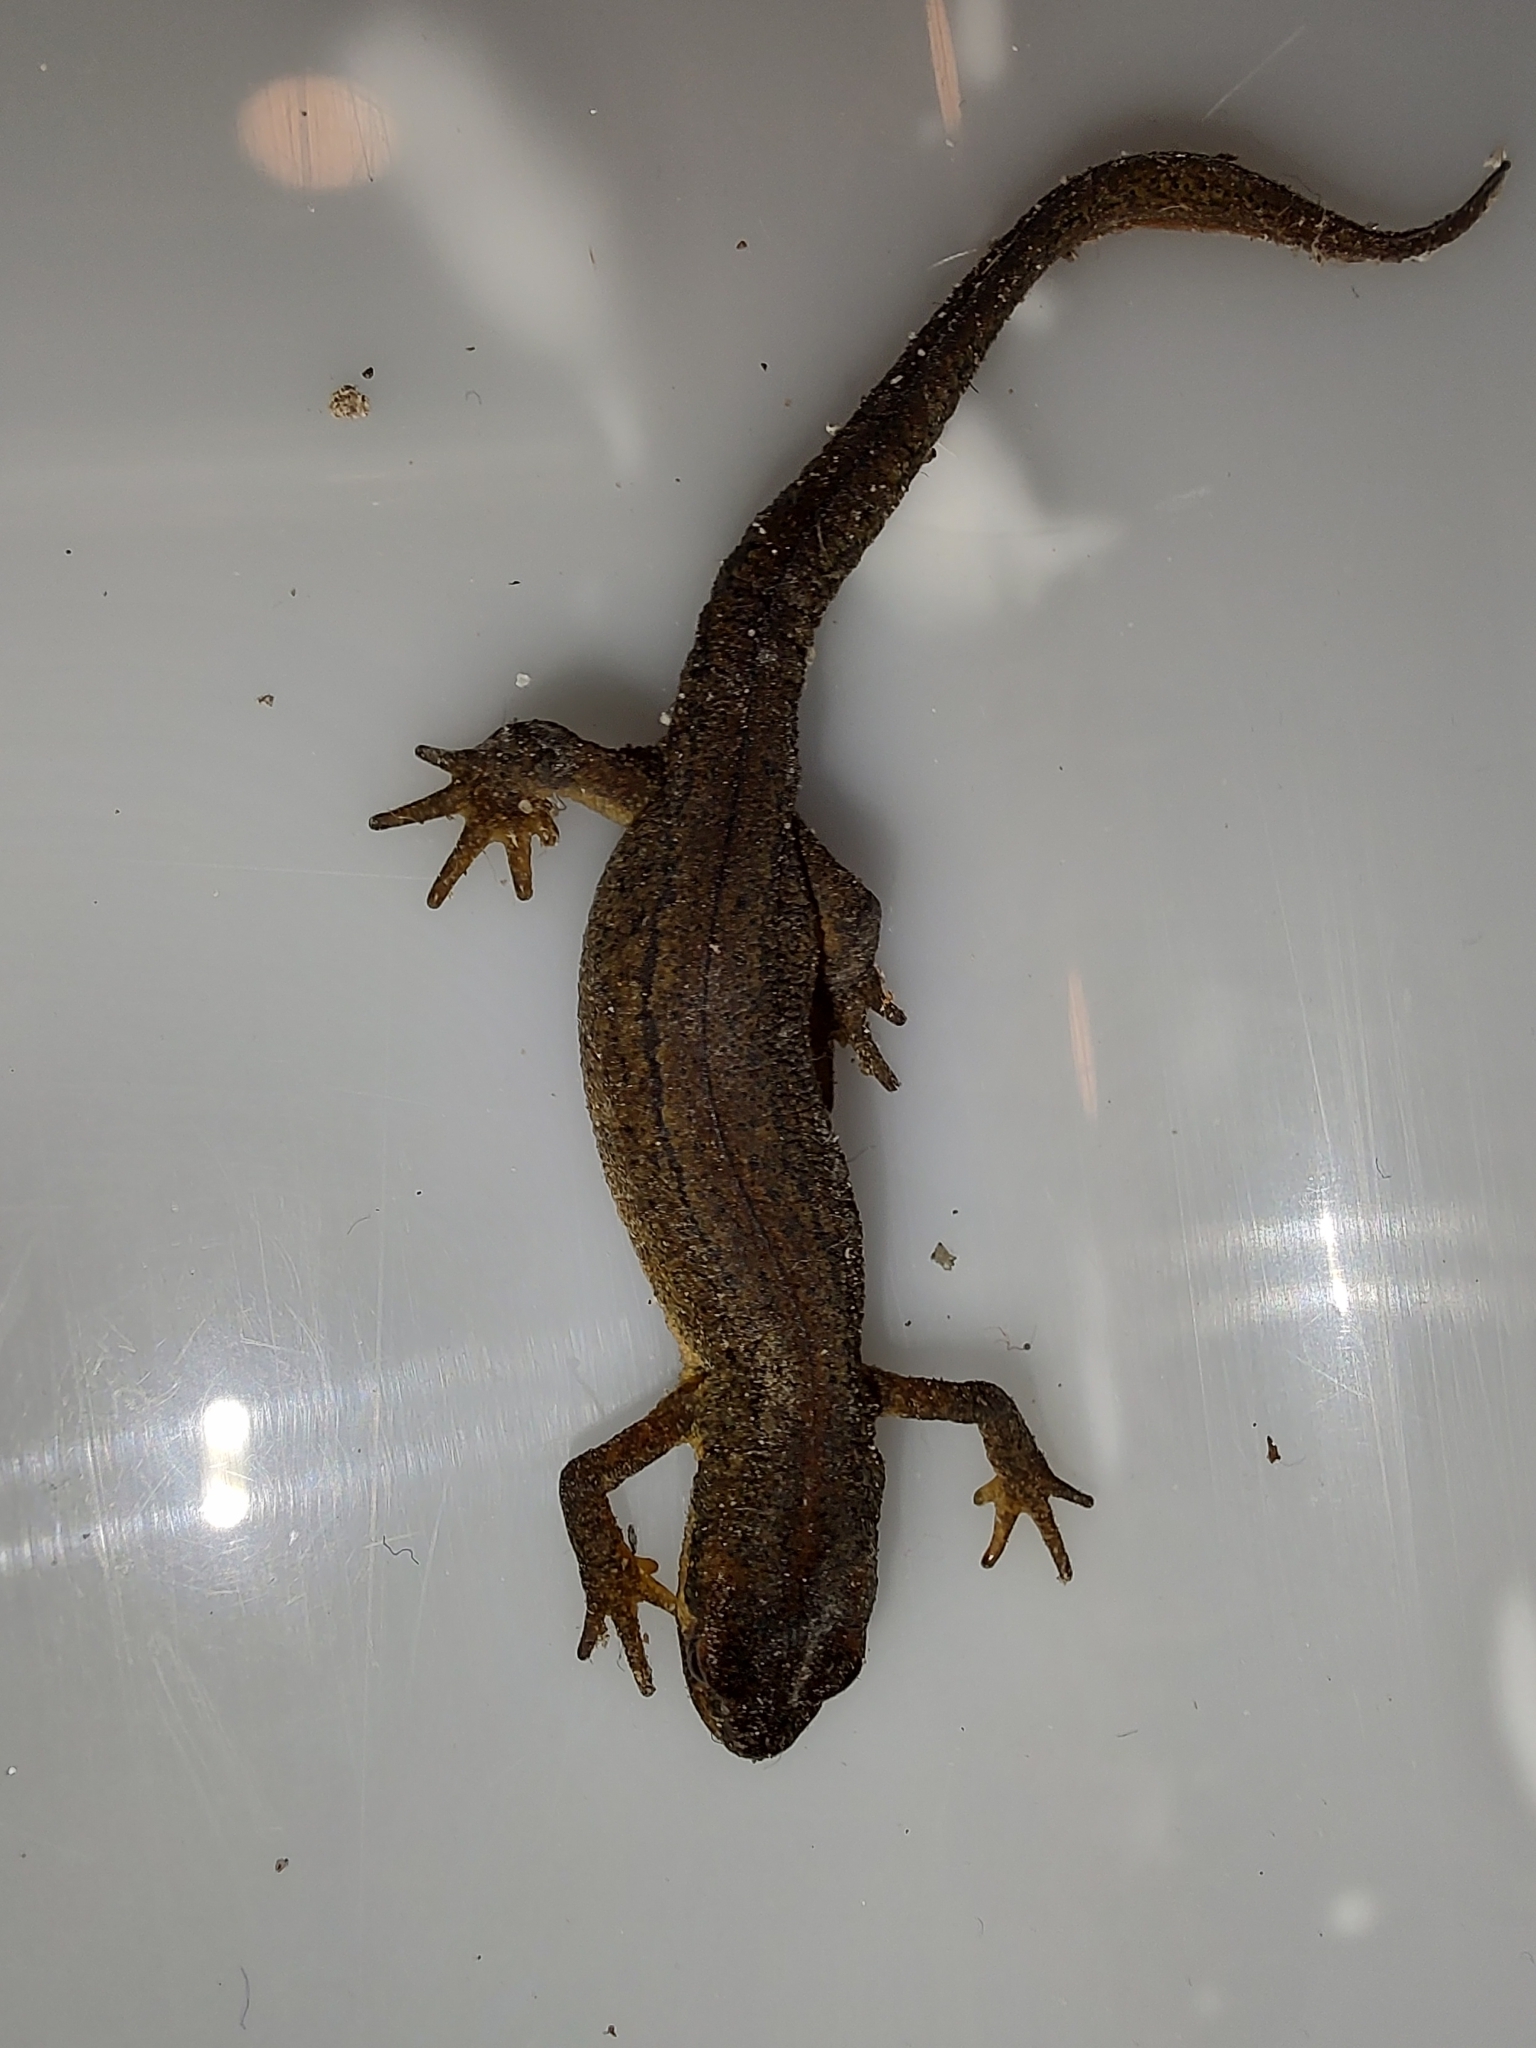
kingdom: Animalia
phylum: Chordata
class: Amphibia
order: Caudata
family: Salamandridae
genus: Lissotriton
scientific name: Lissotriton vulgaris
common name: Smooth newt
